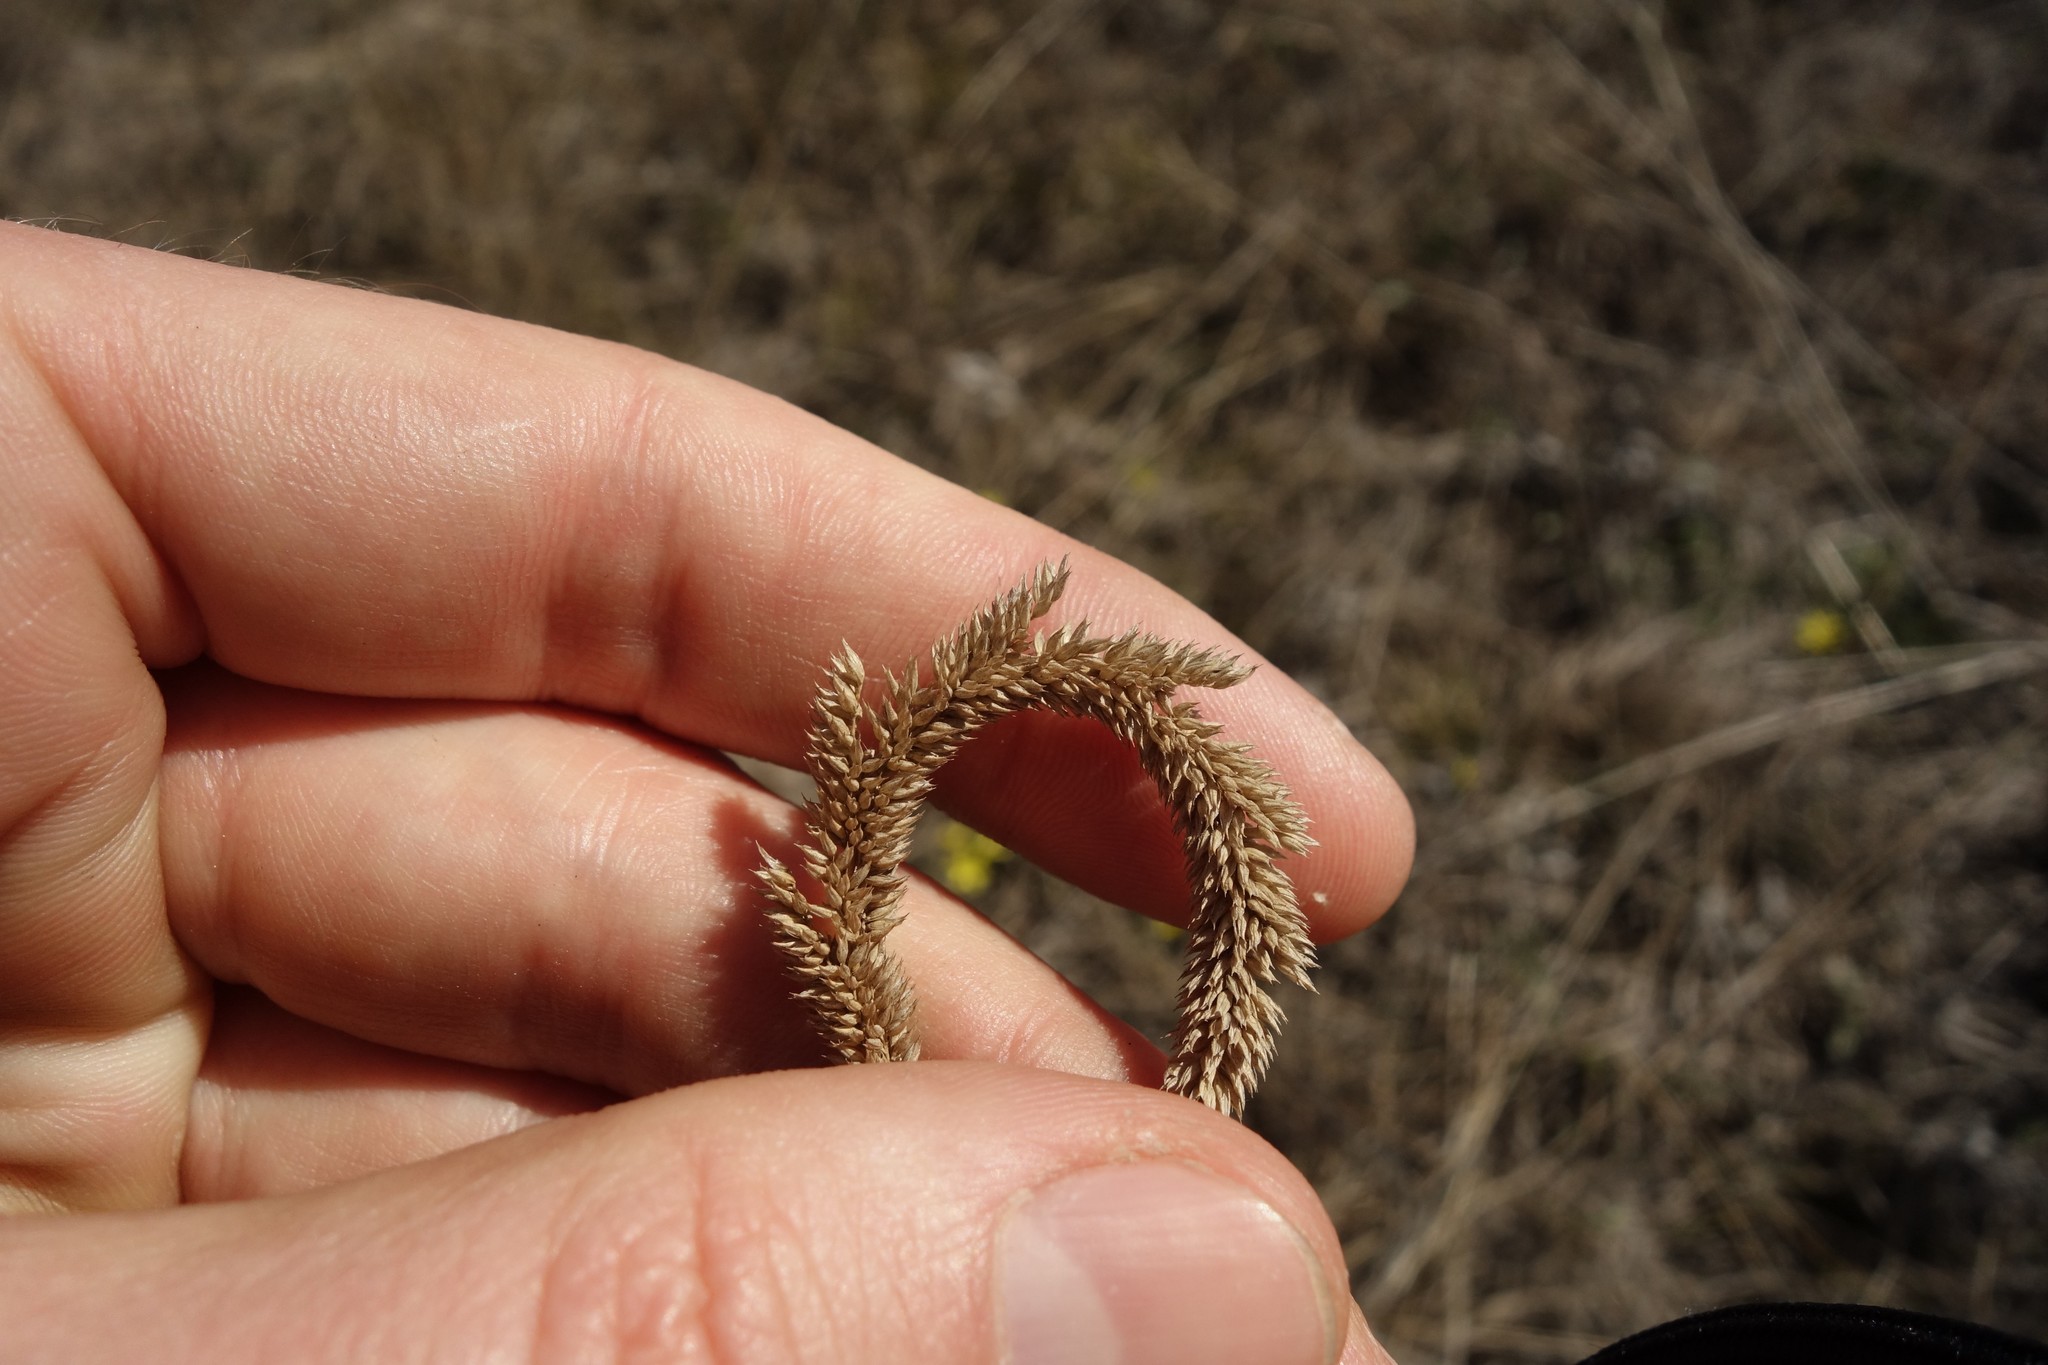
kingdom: Plantae
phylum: Tracheophyta
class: Liliopsida
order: Poales
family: Poaceae
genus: Phleum
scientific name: Phleum phleoides
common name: Purple-stem cat's-tail
